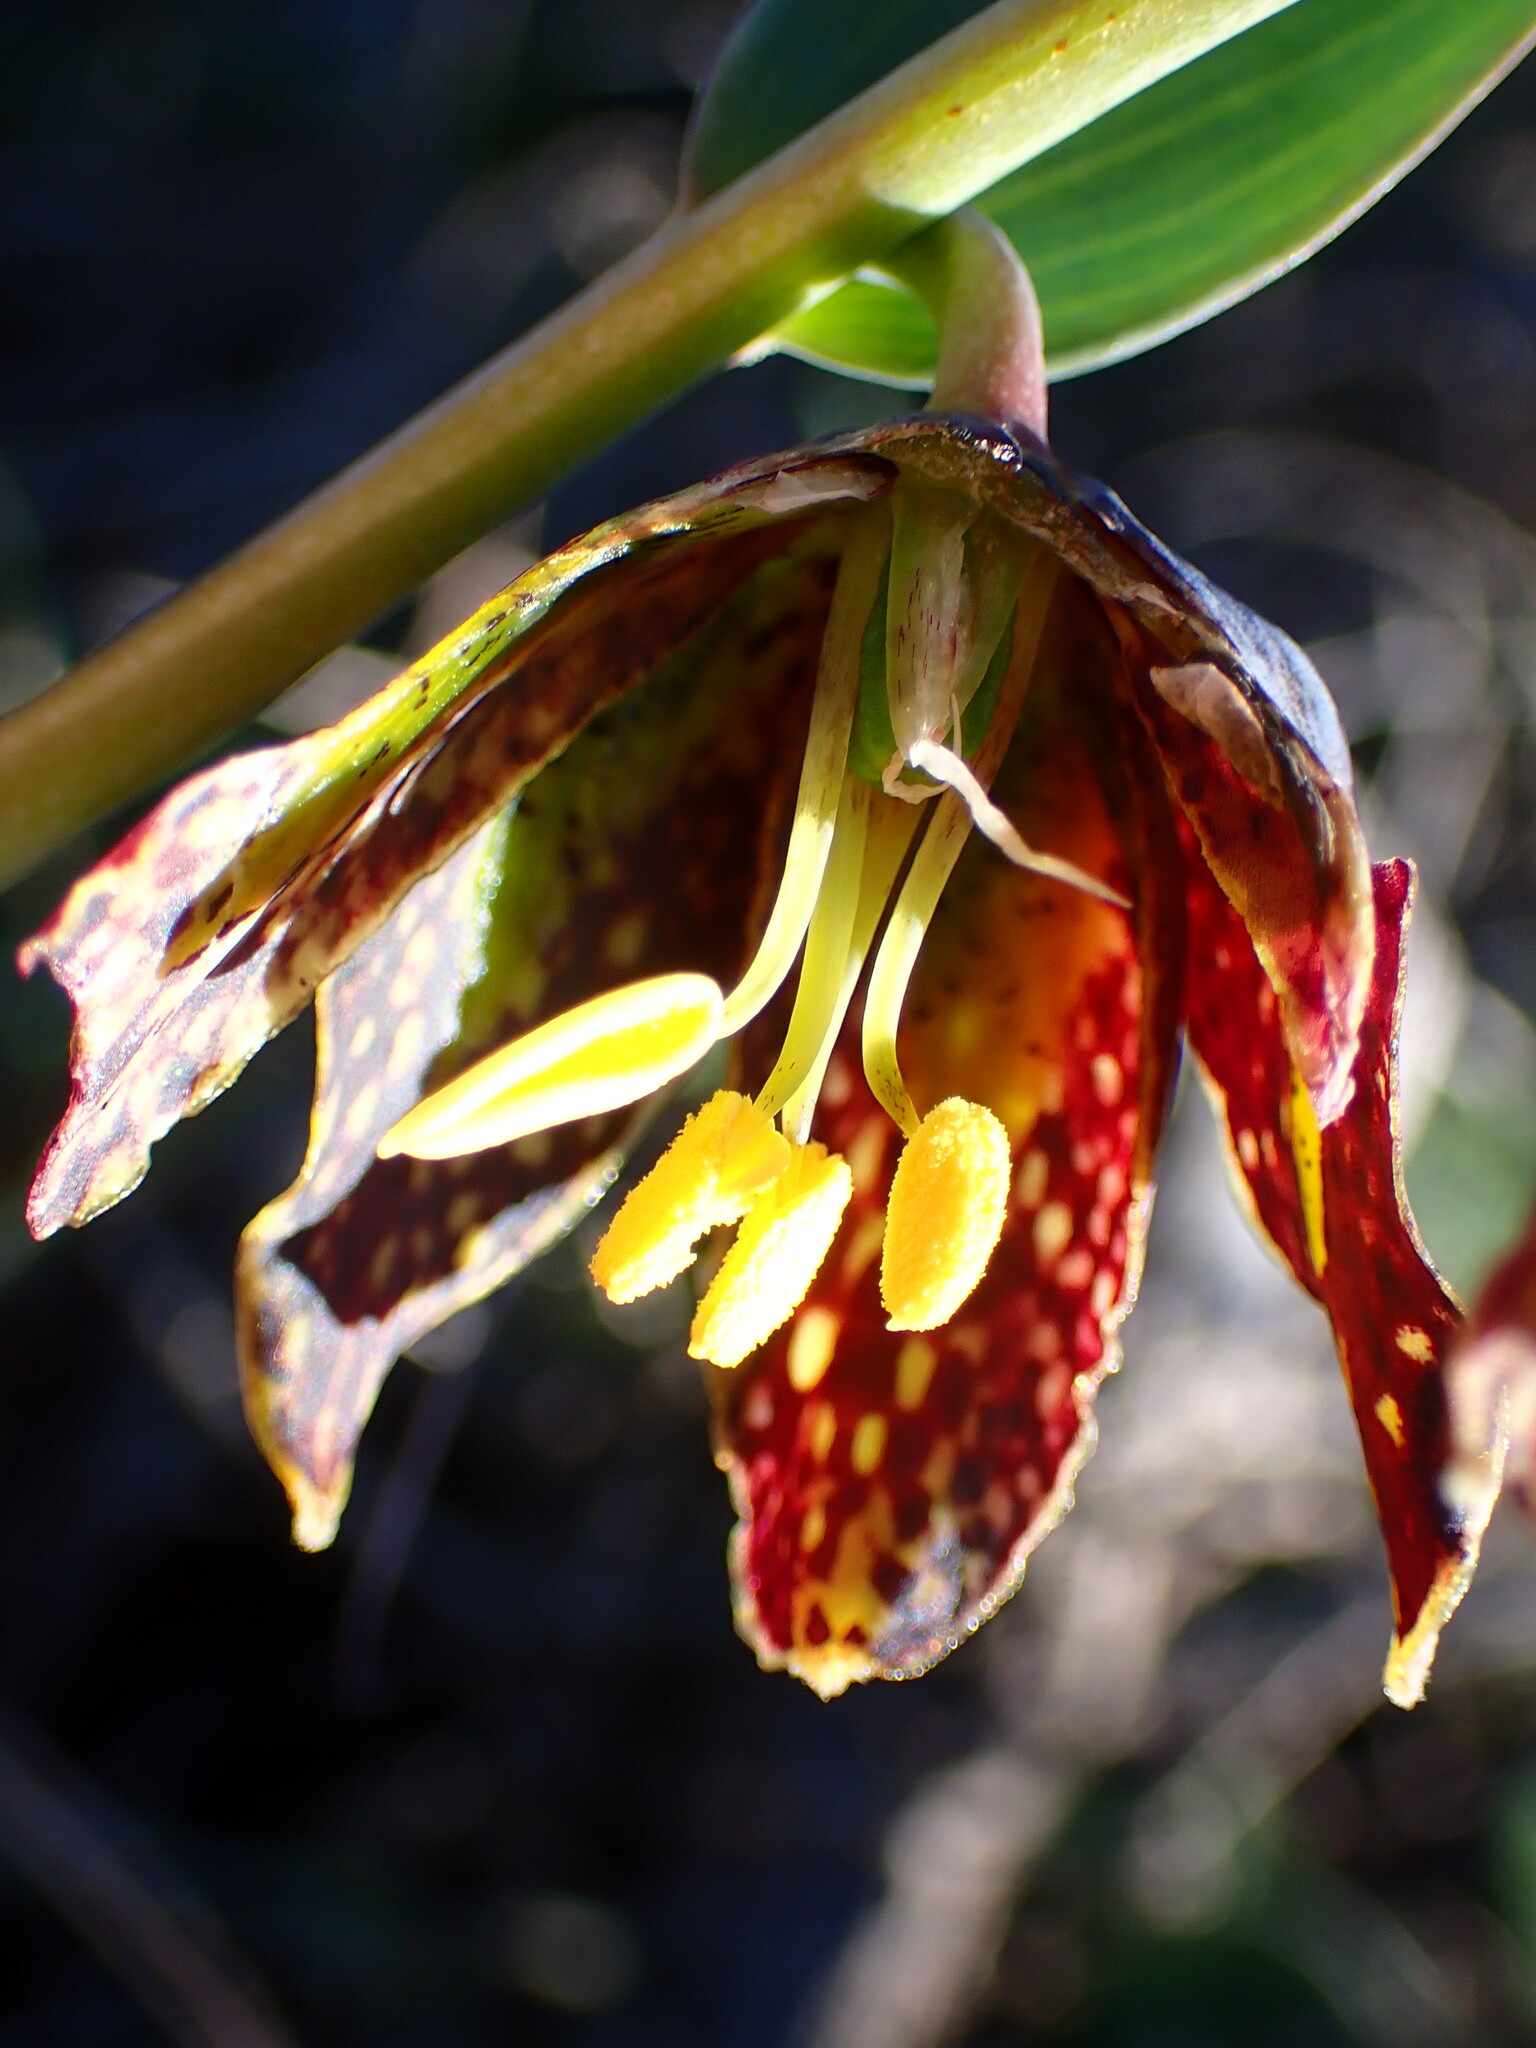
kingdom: Plantae
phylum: Tracheophyta
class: Liliopsida
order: Liliales
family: Liliaceae
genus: Fritillaria
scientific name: Fritillaria affinis
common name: Ojai fritillary
